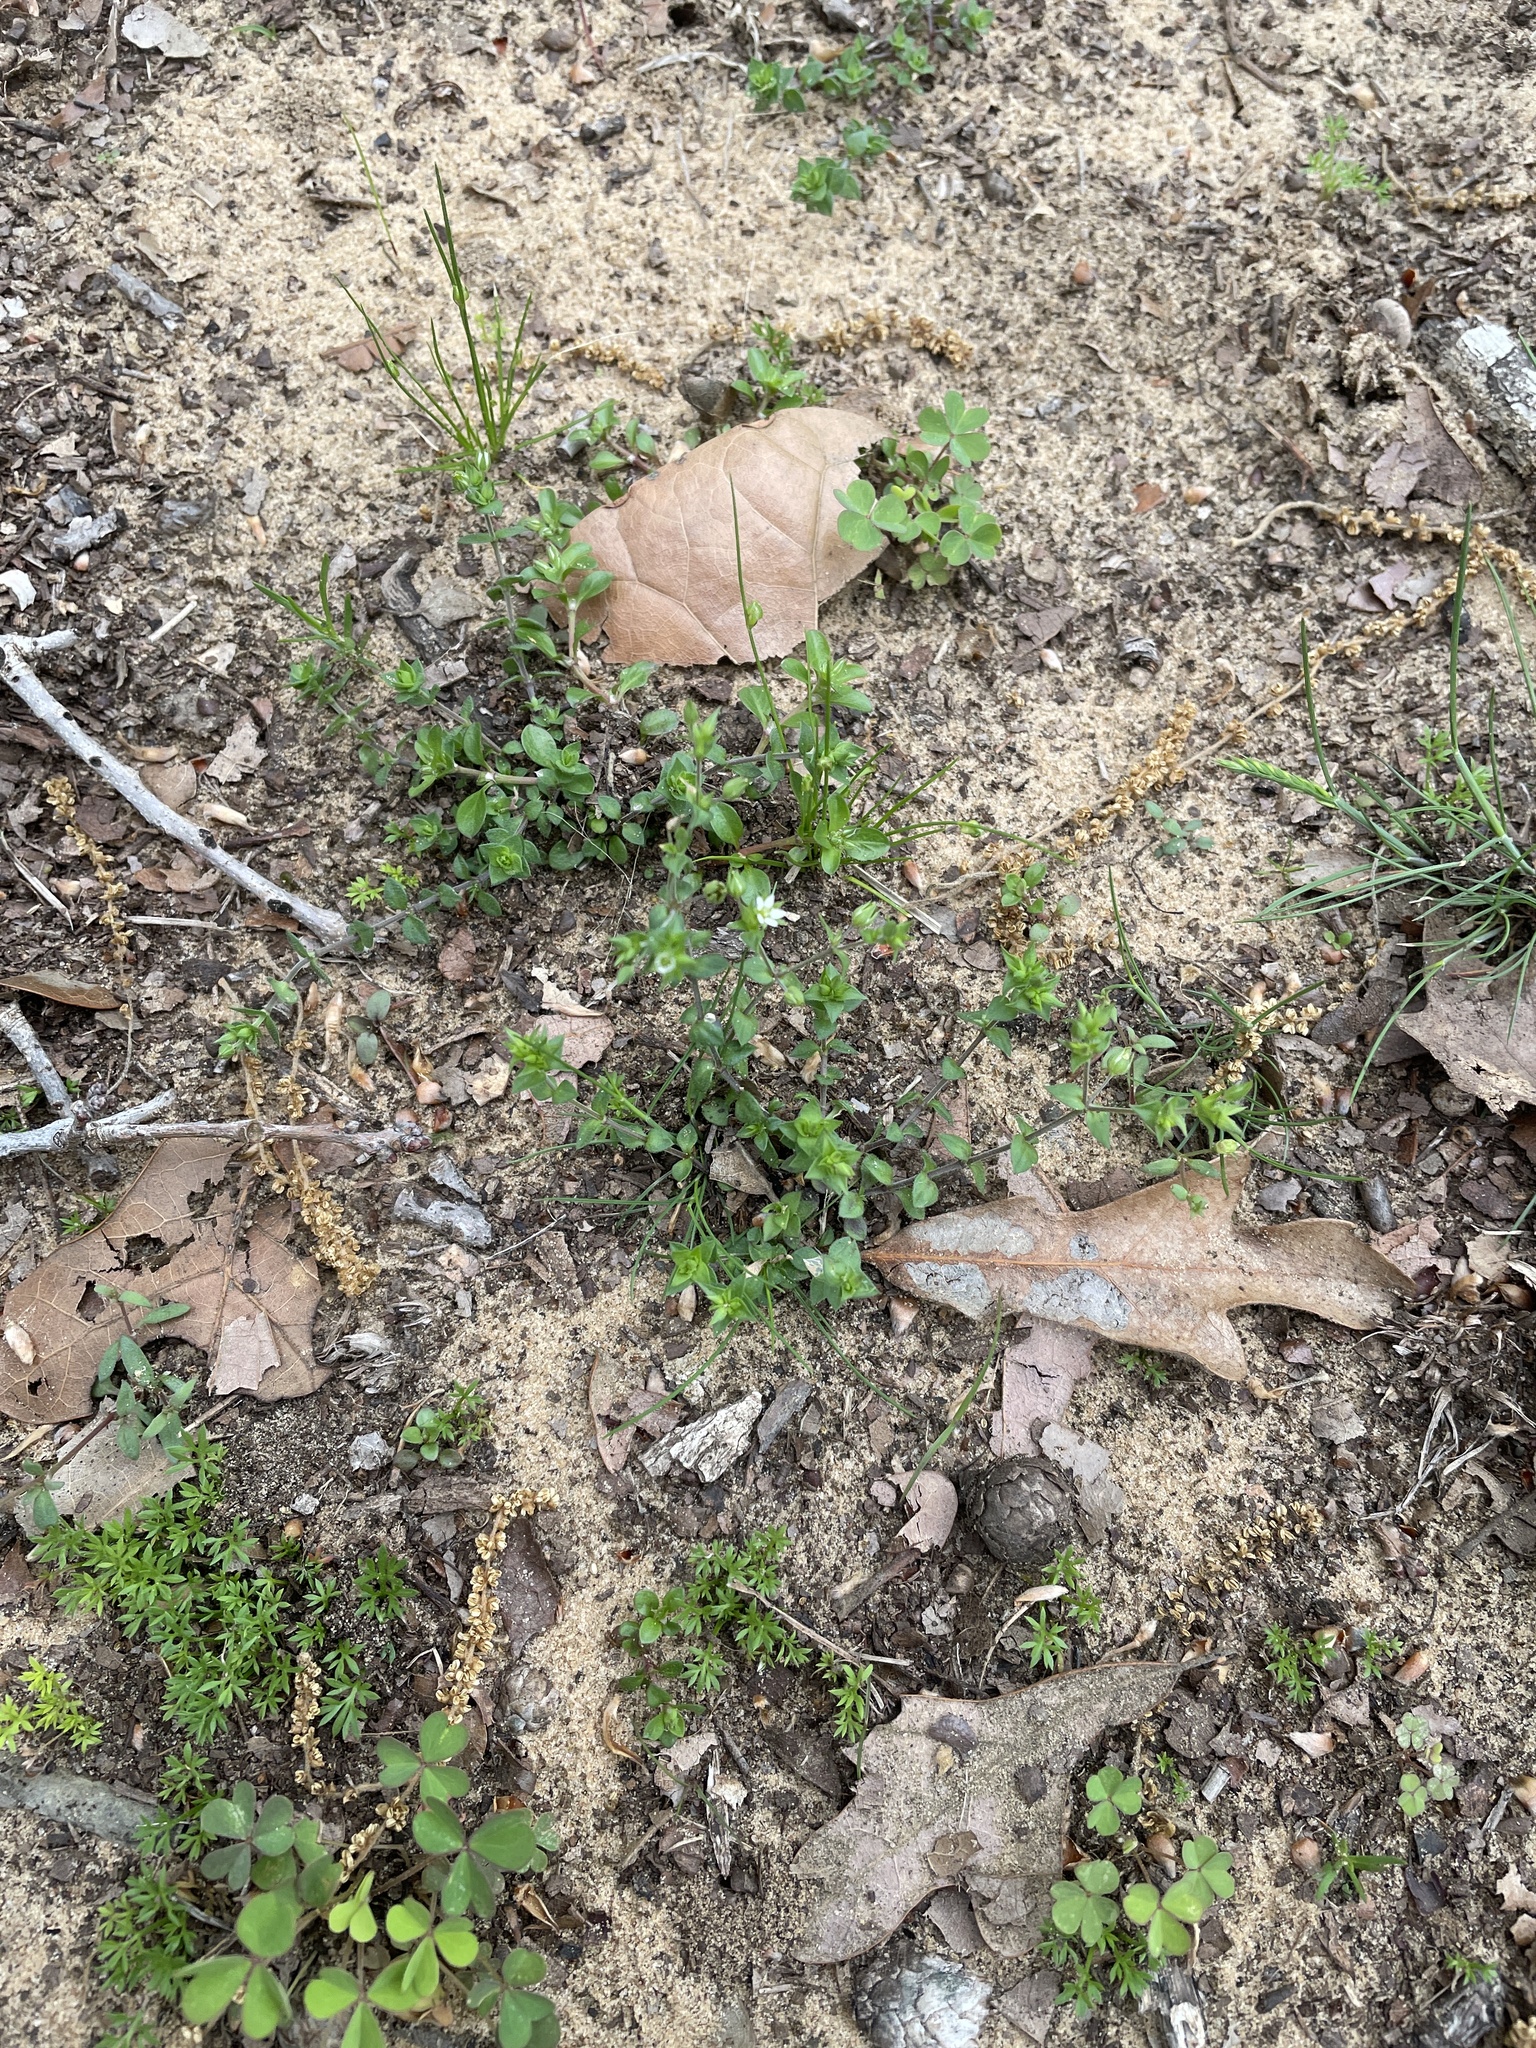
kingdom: Plantae
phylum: Tracheophyta
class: Magnoliopsida
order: Caryophyllales
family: Caryophyllaceae
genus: Arenaria
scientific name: Arenaria serpyllifolia
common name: Thyme-leaved sandwort
